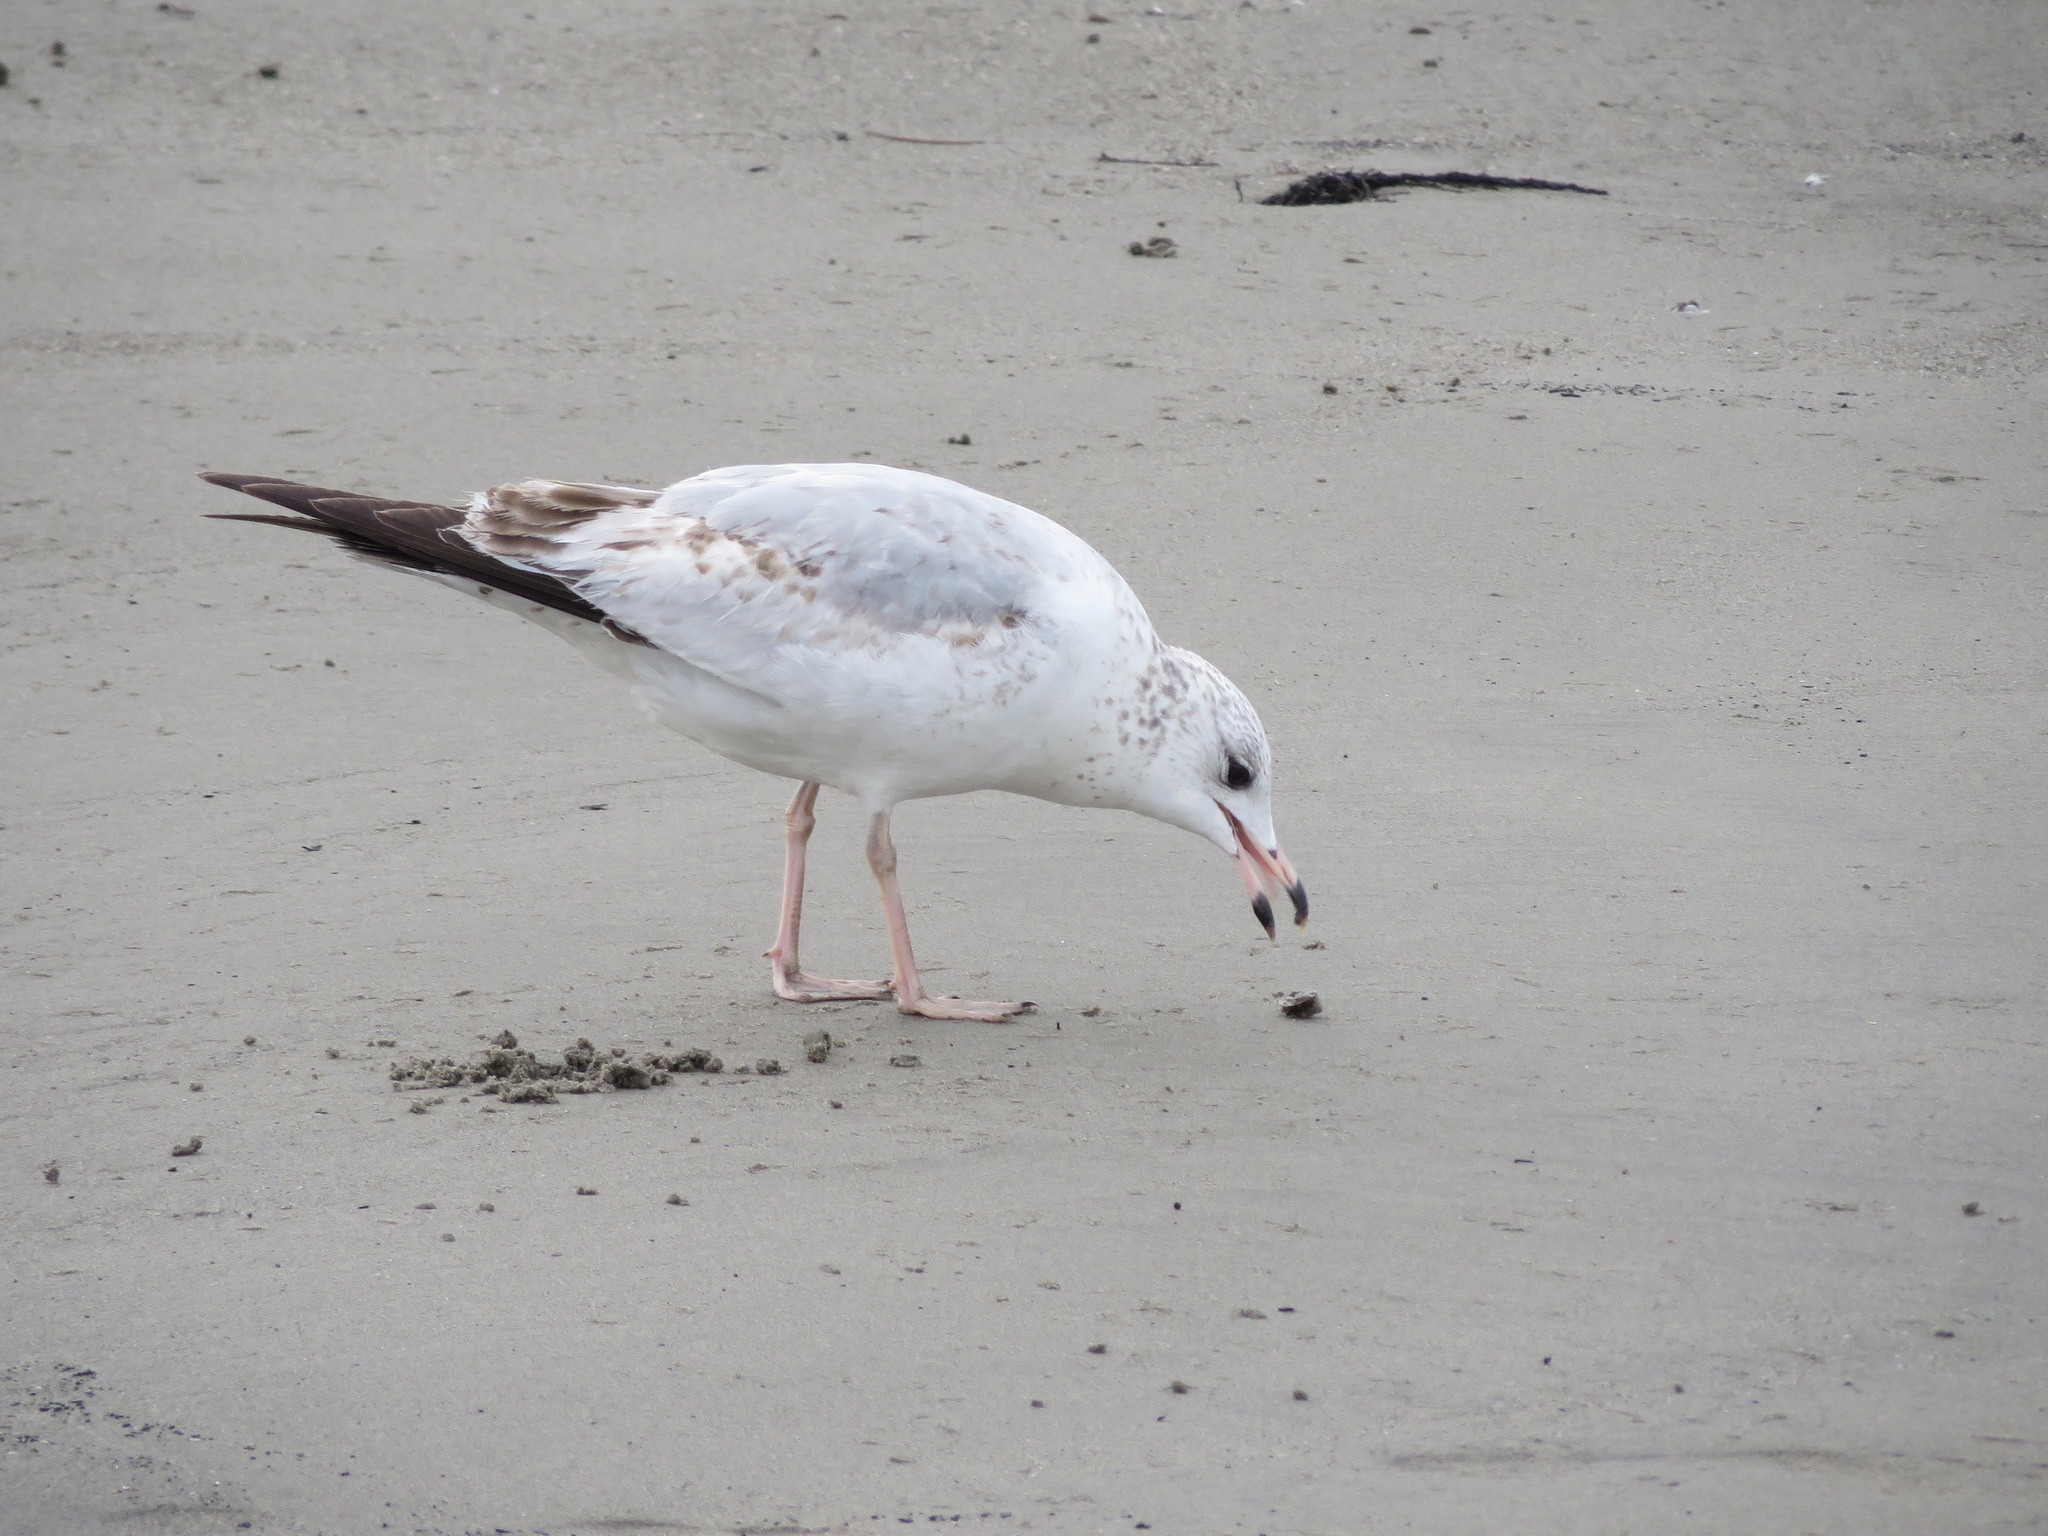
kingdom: Animalia
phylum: Chordata
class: Aves
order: Charadriiformes
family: Laridae
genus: Larus
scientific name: Larus delawarensis
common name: Ring-billed gull
